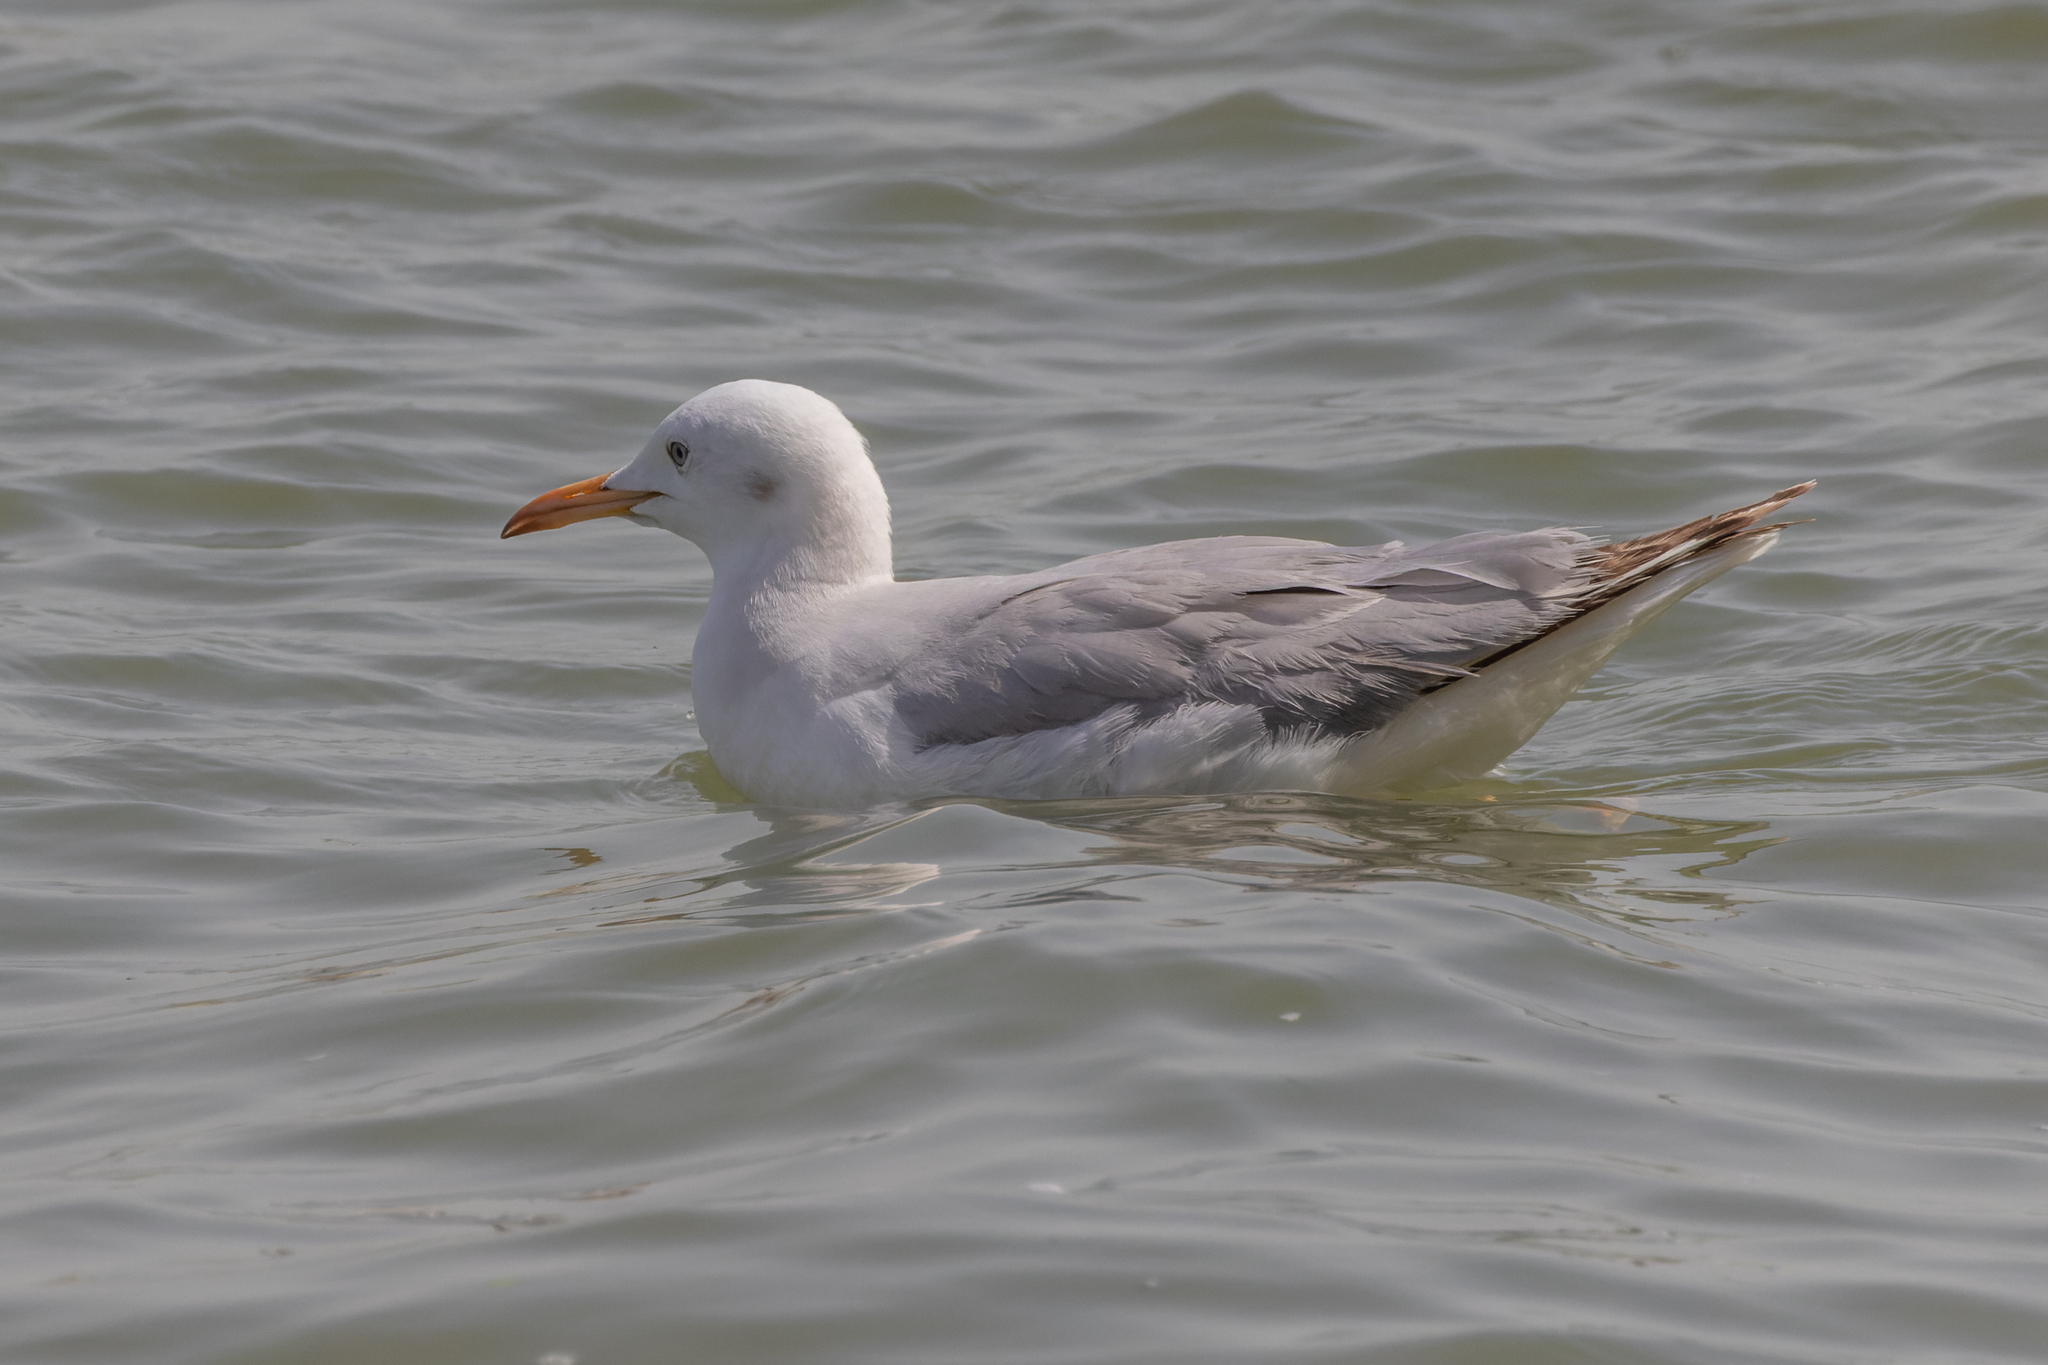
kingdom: Animalia
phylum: Chordata
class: Aves
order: Charadriiformes
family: Laridae
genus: Chroicocephalus
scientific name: Chroicocephalus genei
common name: Slender-billed gull
